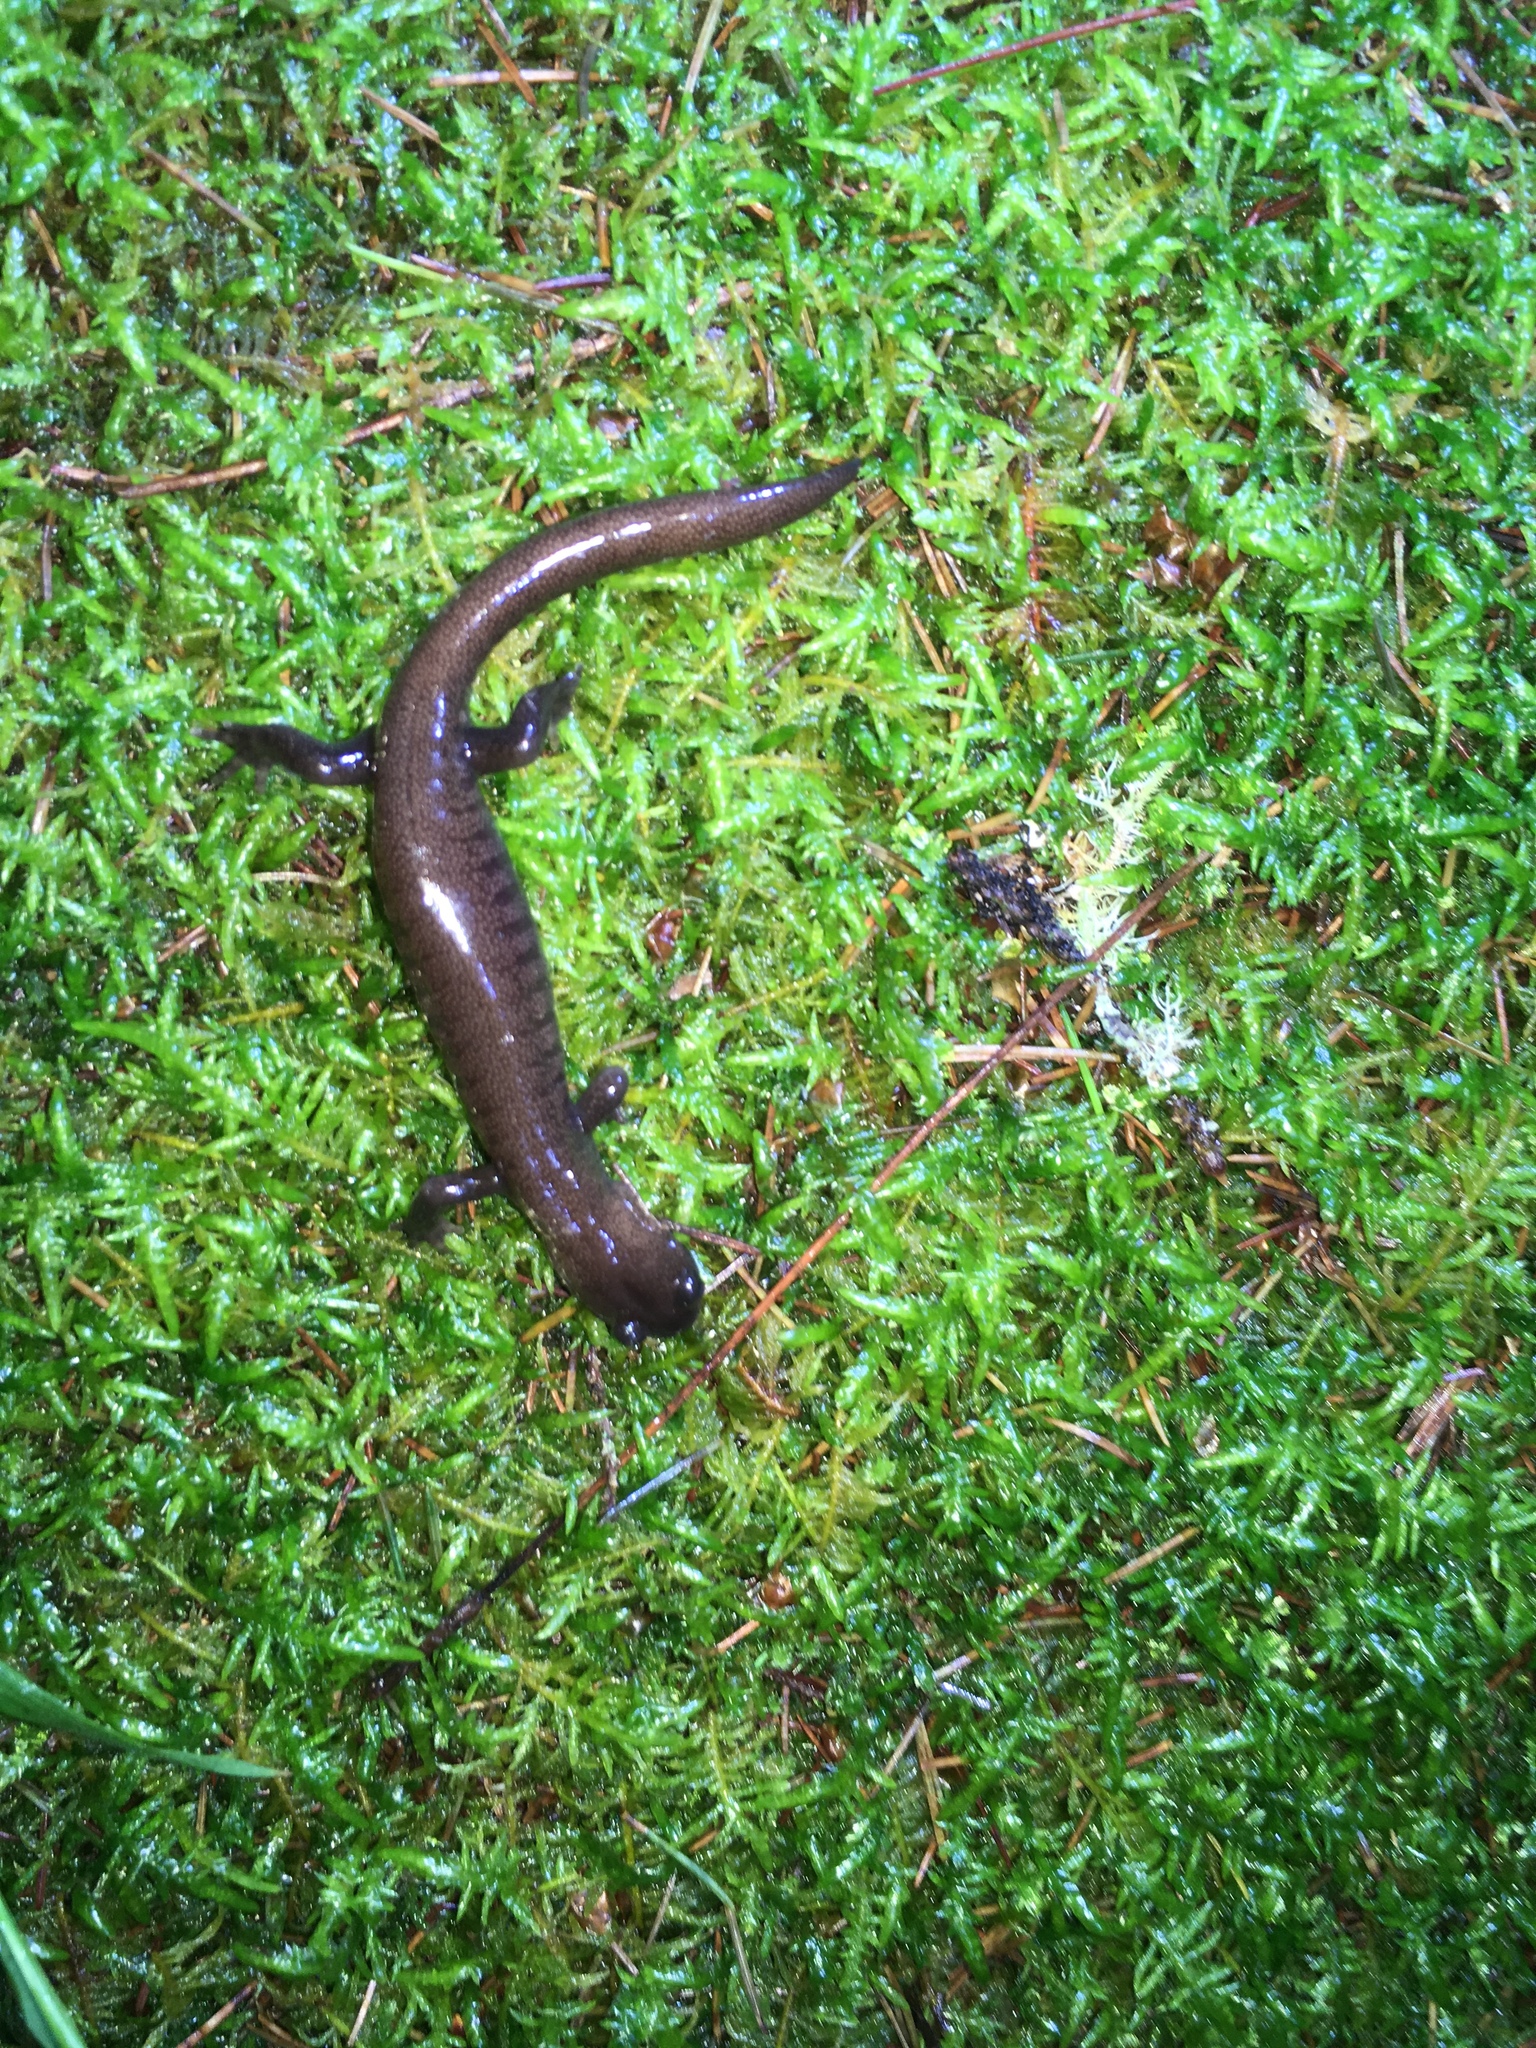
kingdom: Animalia
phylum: Chordata
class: Amphibia
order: Caudata
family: Hynobiidae
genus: Hynobius
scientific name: Hynobius arisanensis
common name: Alisan's salamander
